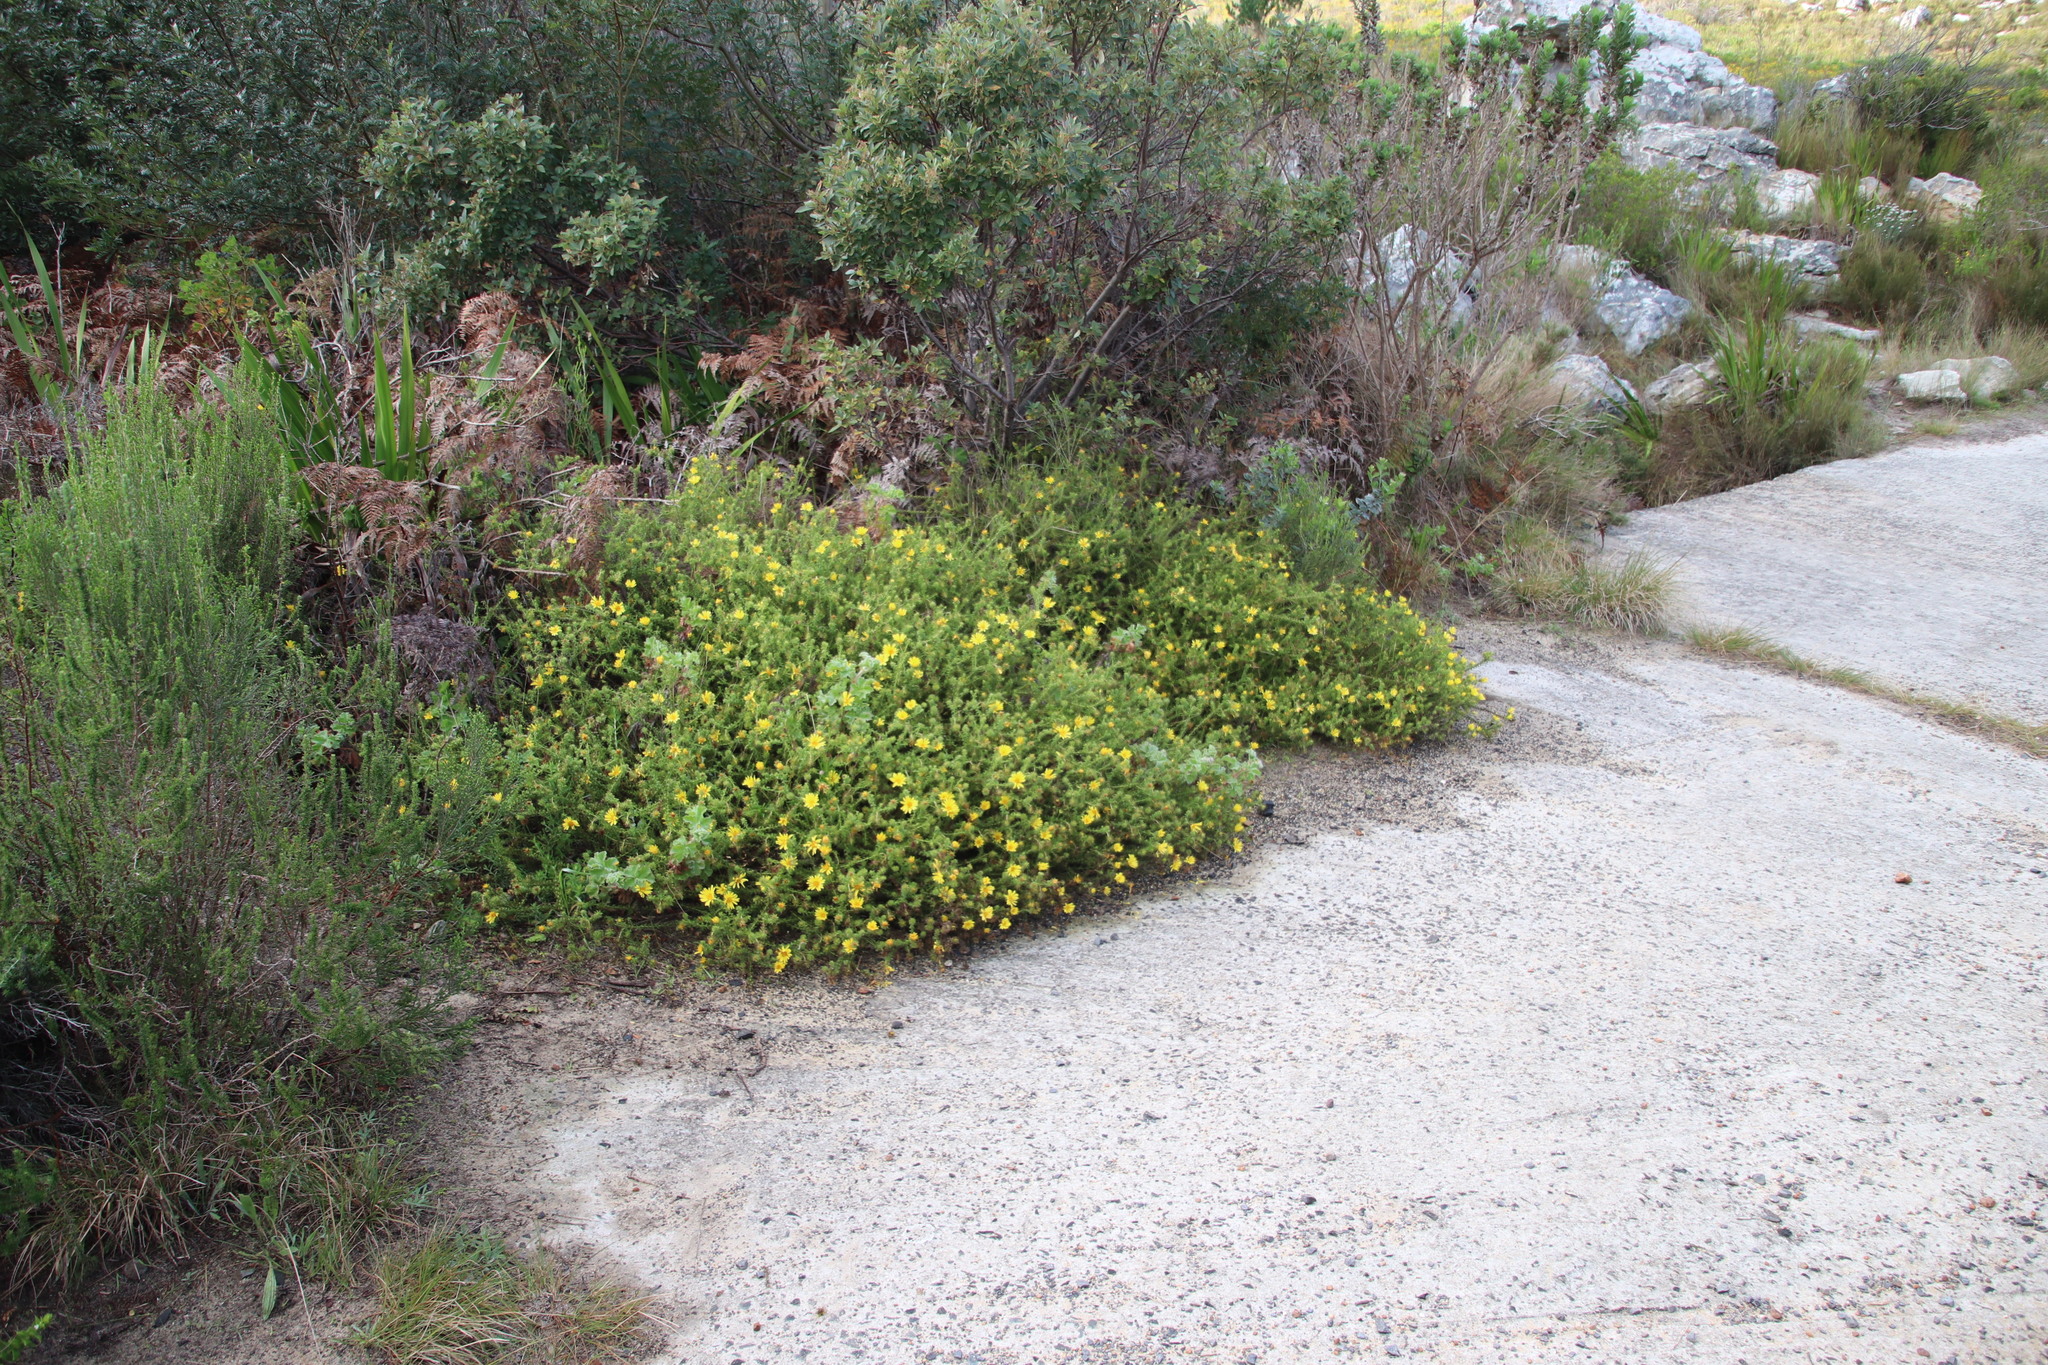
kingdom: Plantae
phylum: Tracheophyta
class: Magnoliopsida
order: Asterales
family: Asteraceae
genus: Cullumia
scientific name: Cullumia setosa
